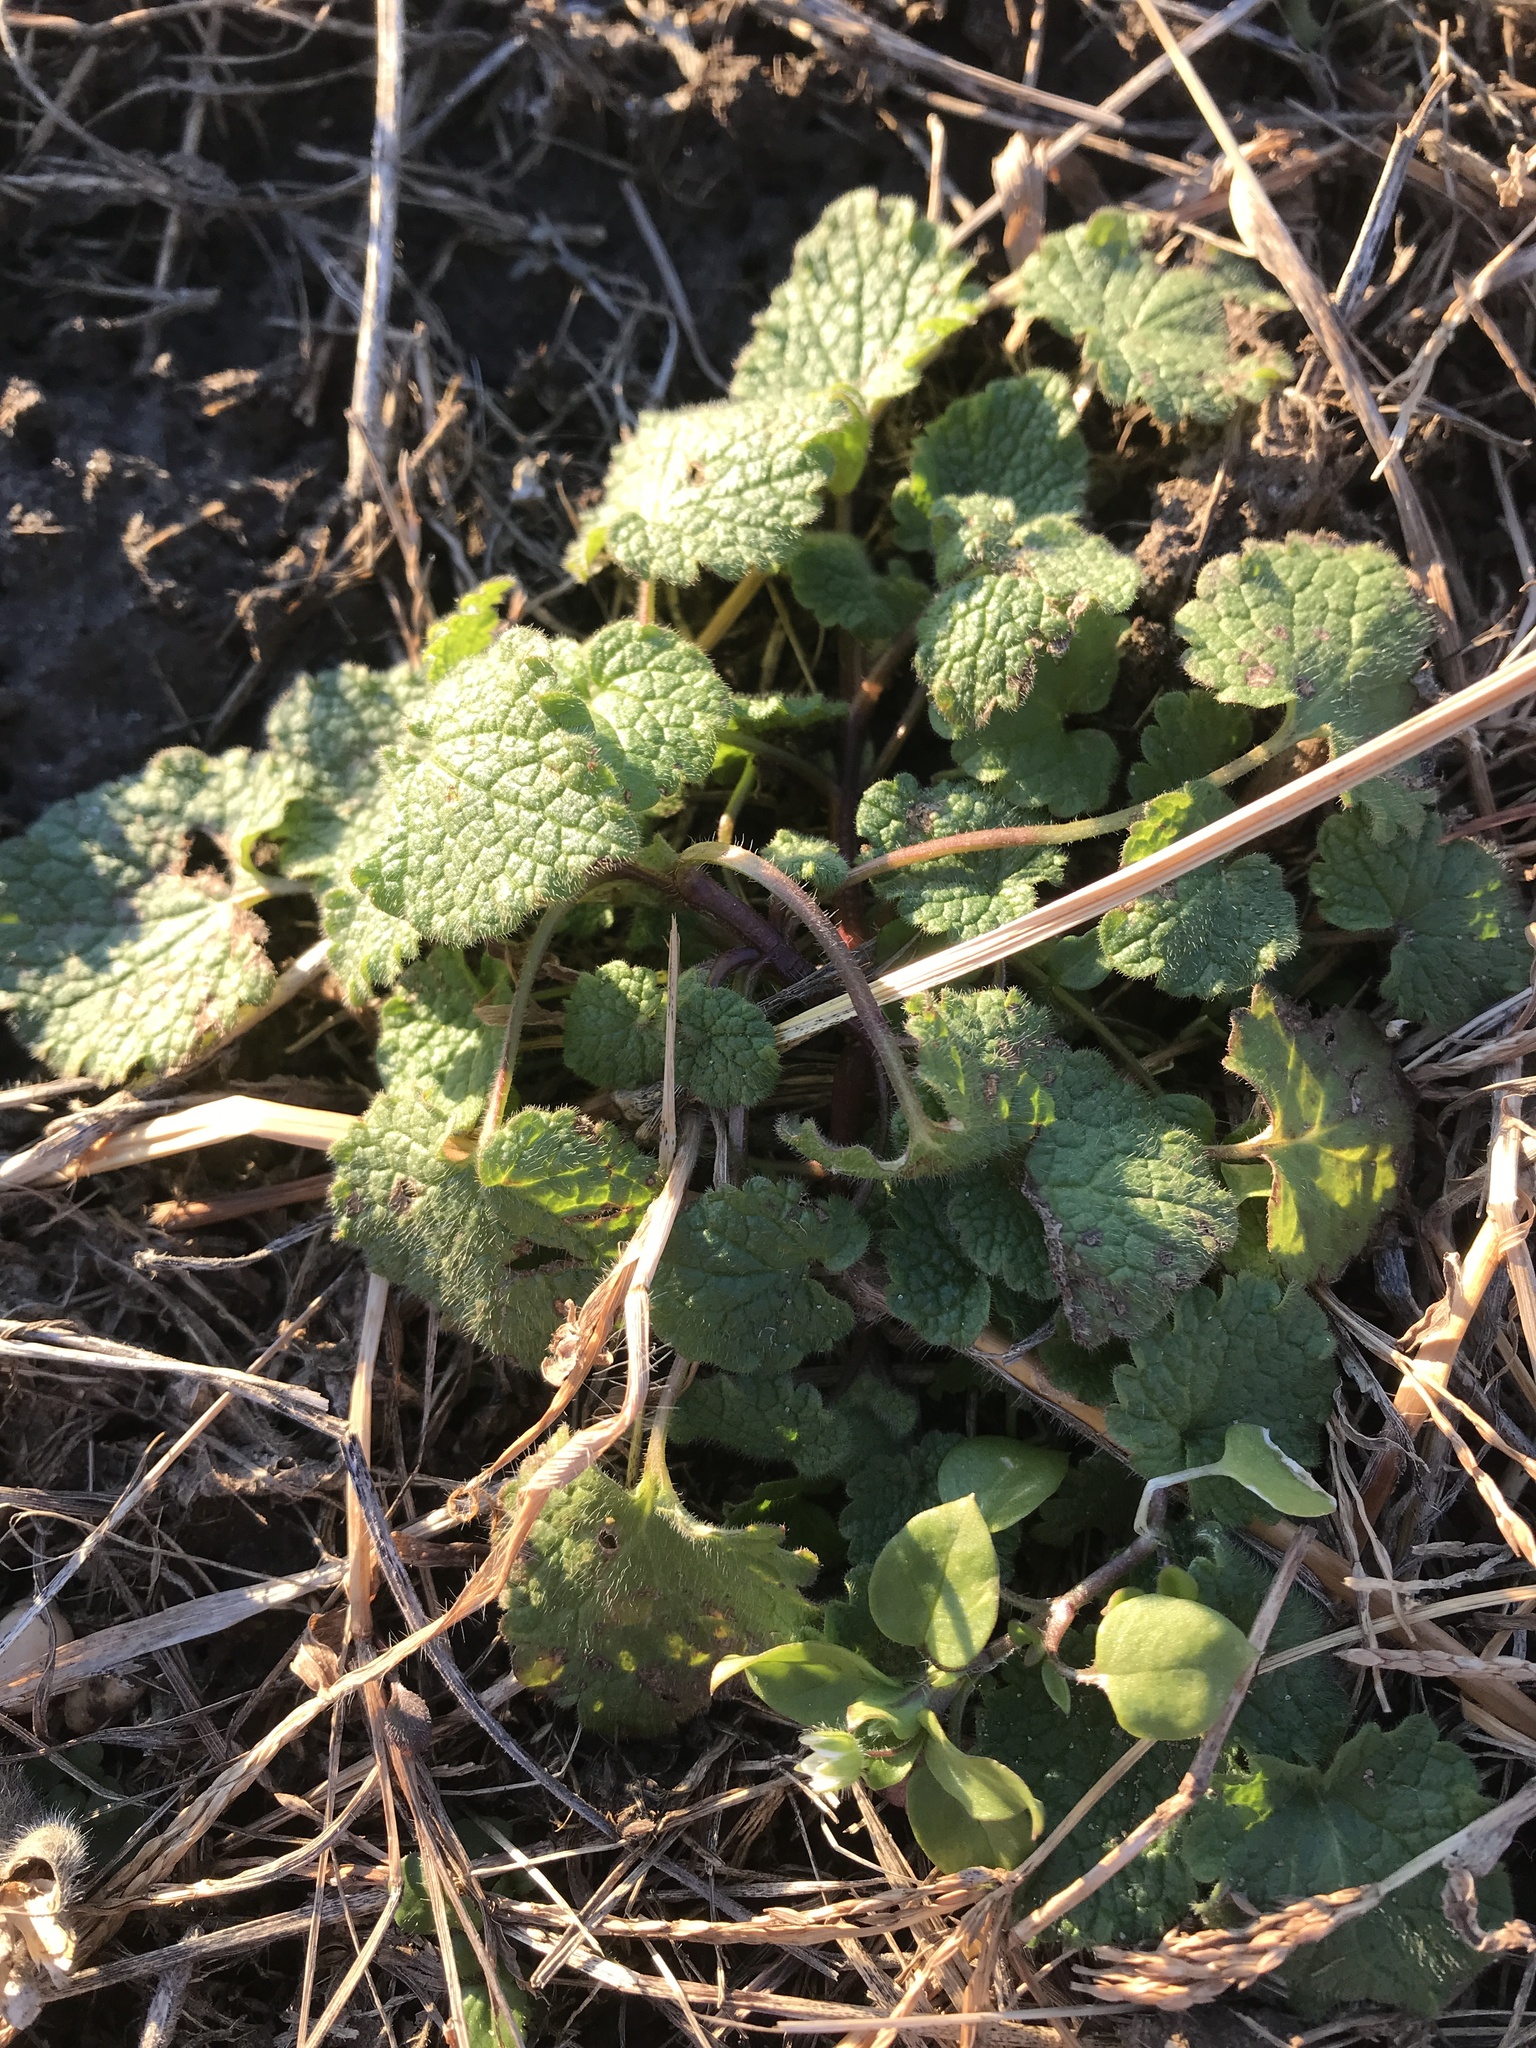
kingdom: Plantae
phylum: Tracheophyta
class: Magnoliopsida
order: Lamiales
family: Lamiaceae
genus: Lamium
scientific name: Lamium purpureum
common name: Red dead-nettle
